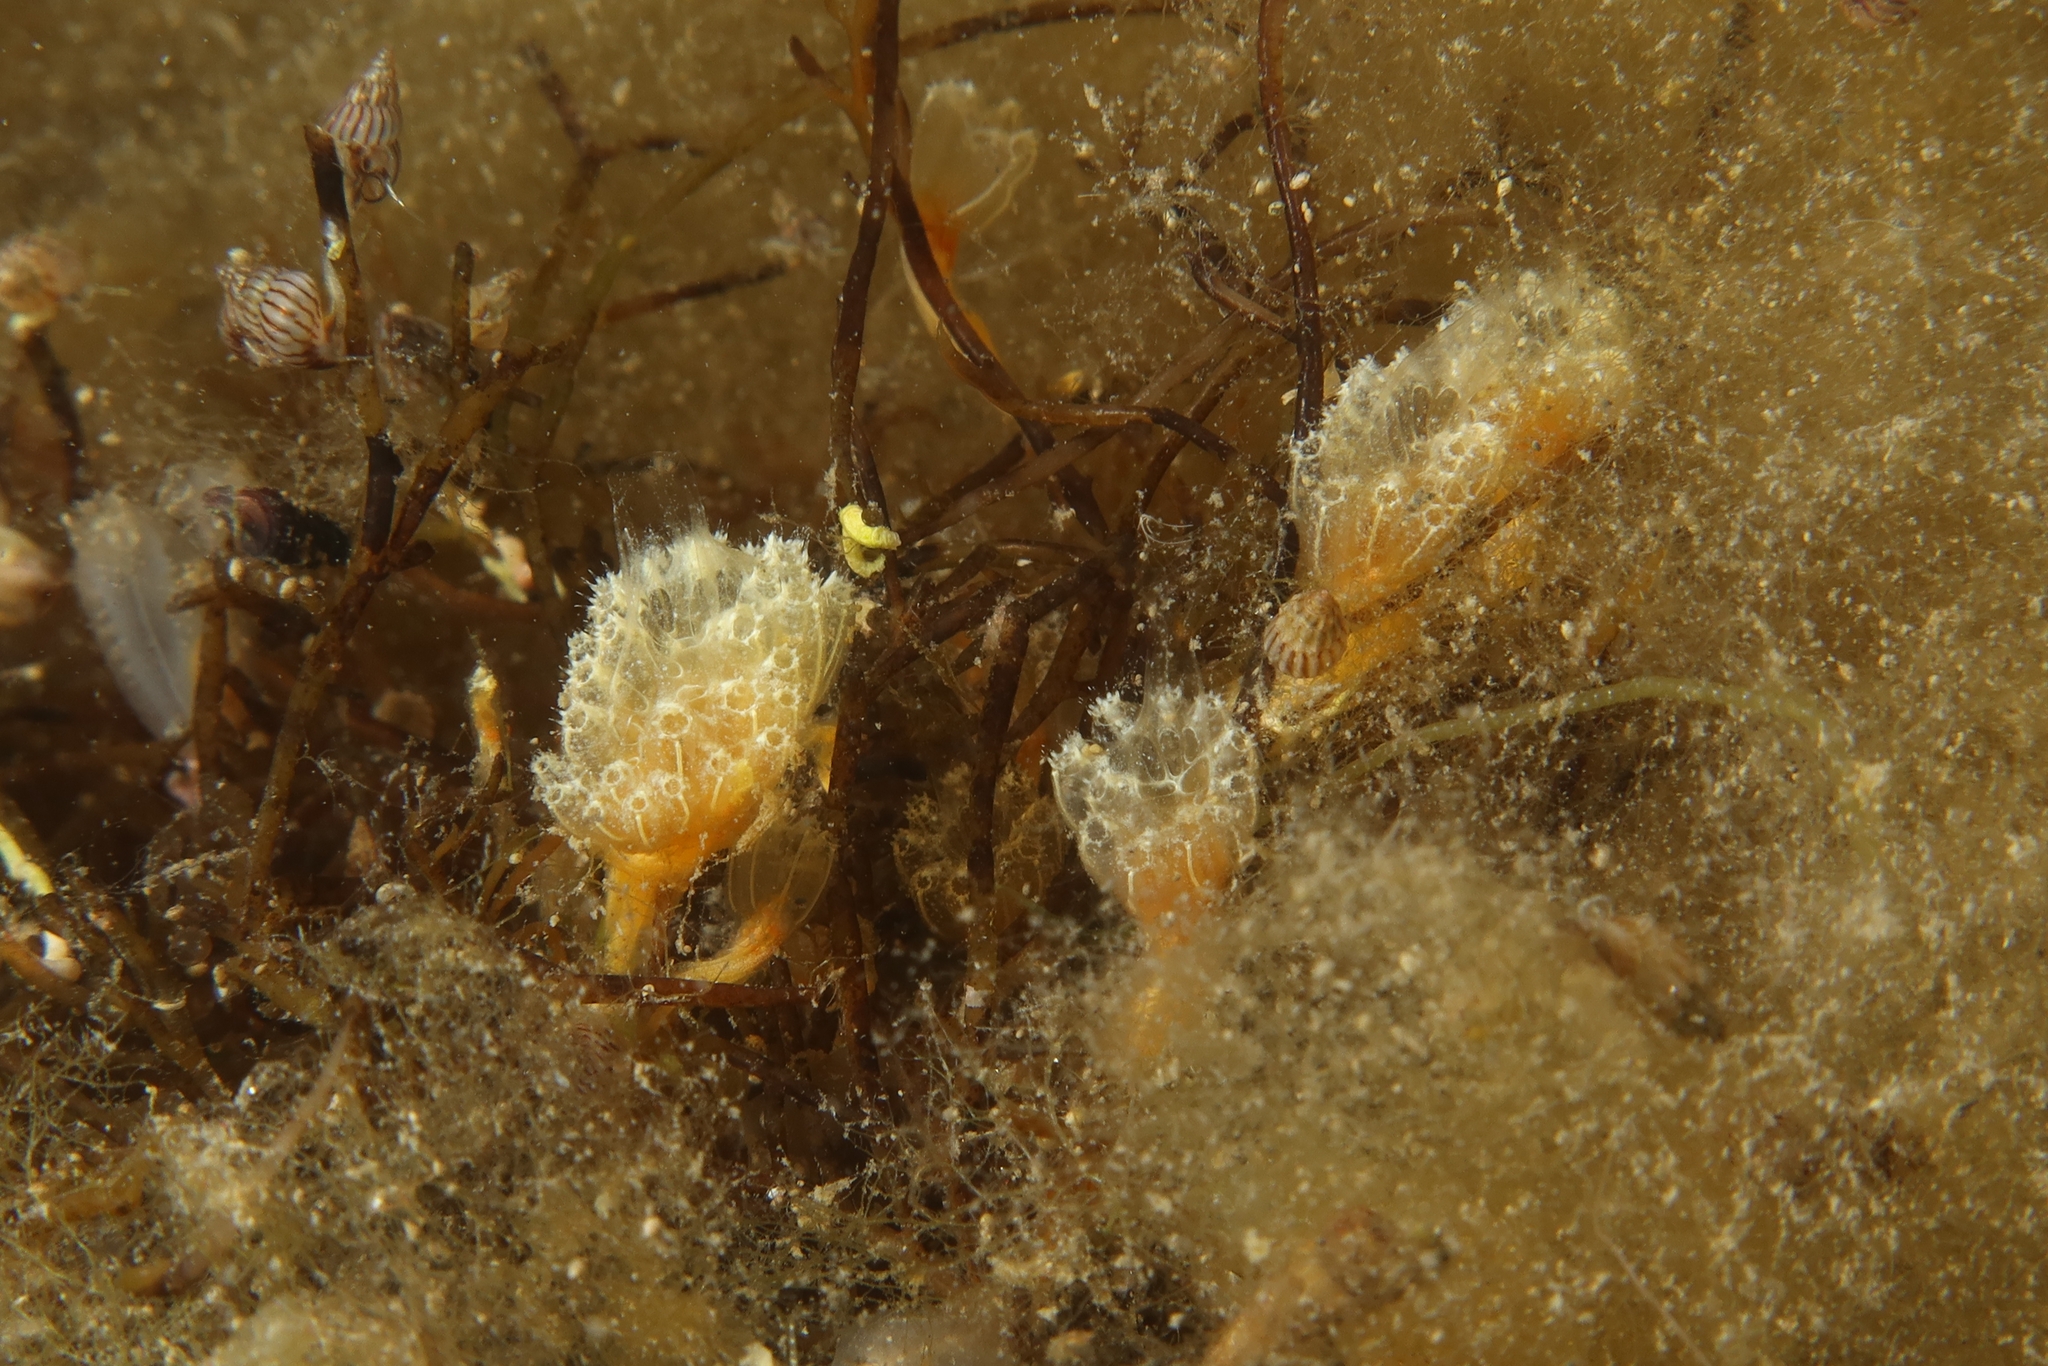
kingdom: Animalia
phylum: Chordata
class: Ascidiacea
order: Aplousobranchia
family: Polyclinidae
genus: Aplidium
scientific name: Aplidium turbinatum
